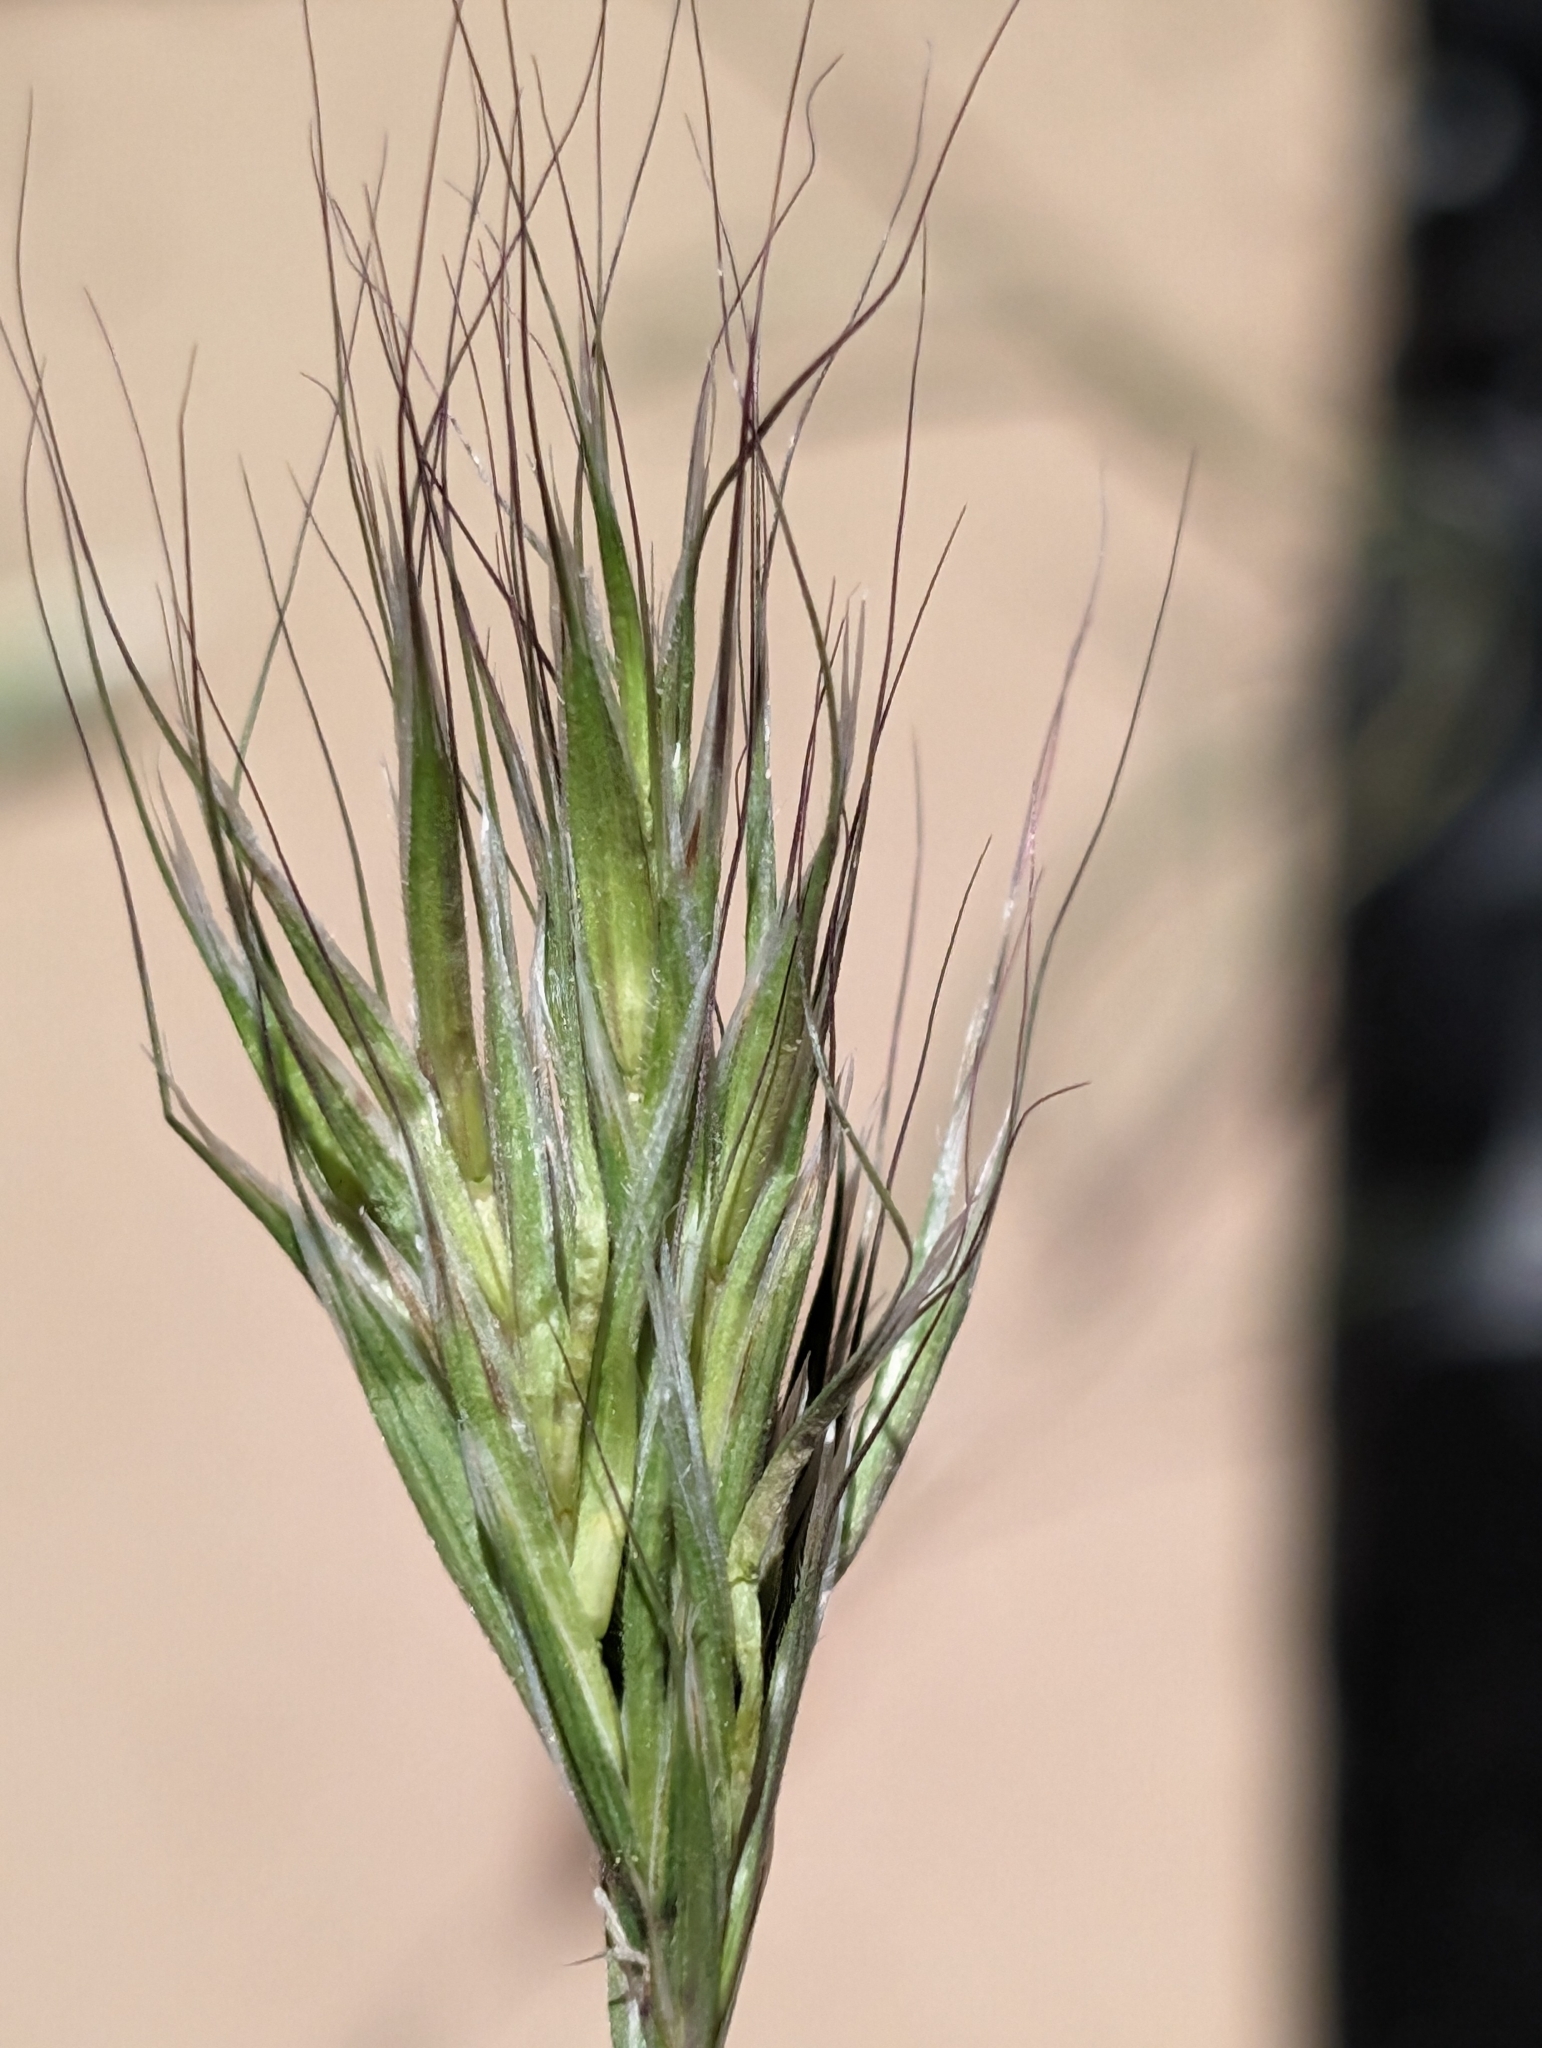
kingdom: Plantae
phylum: Tracheophyta
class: Liliopsida
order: Poales
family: Poaceae
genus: Bromus
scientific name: Bromus rubens
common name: Red brome
